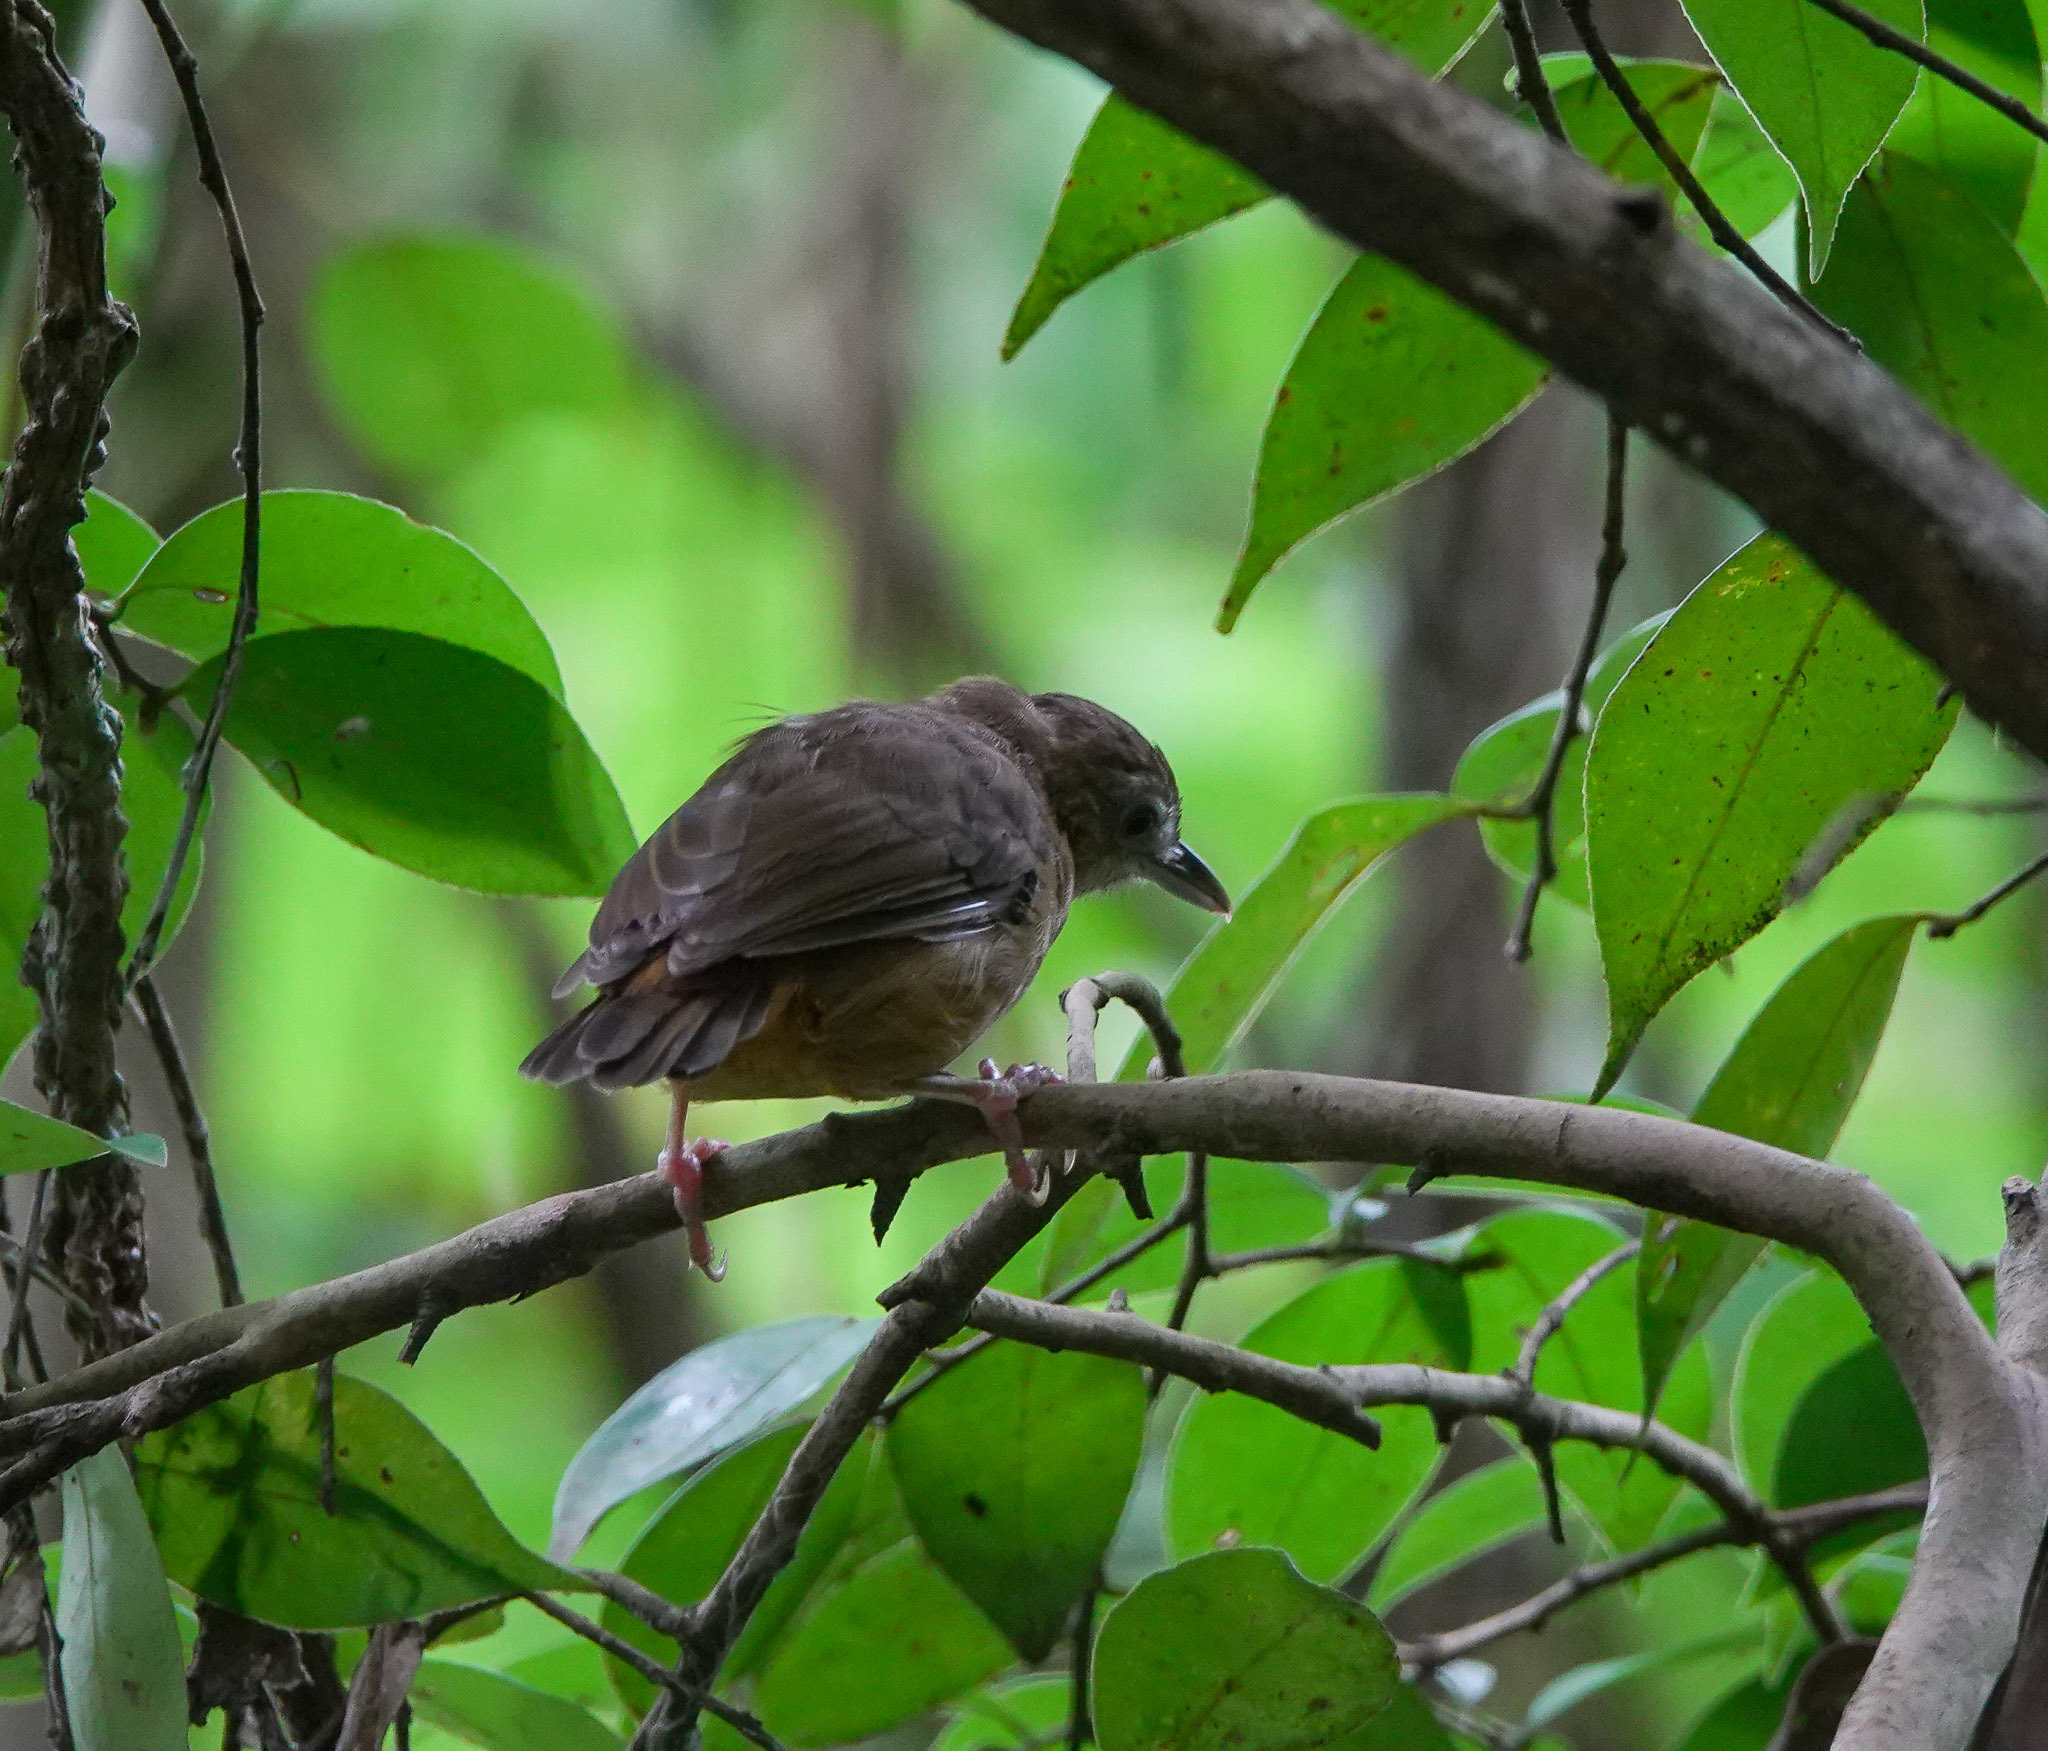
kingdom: Animalia
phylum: Chordata
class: Aves
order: Passeriformes
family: Pellorneidae
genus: Malacocincla
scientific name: Malacocincla abbotti
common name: Abbott's babbler
